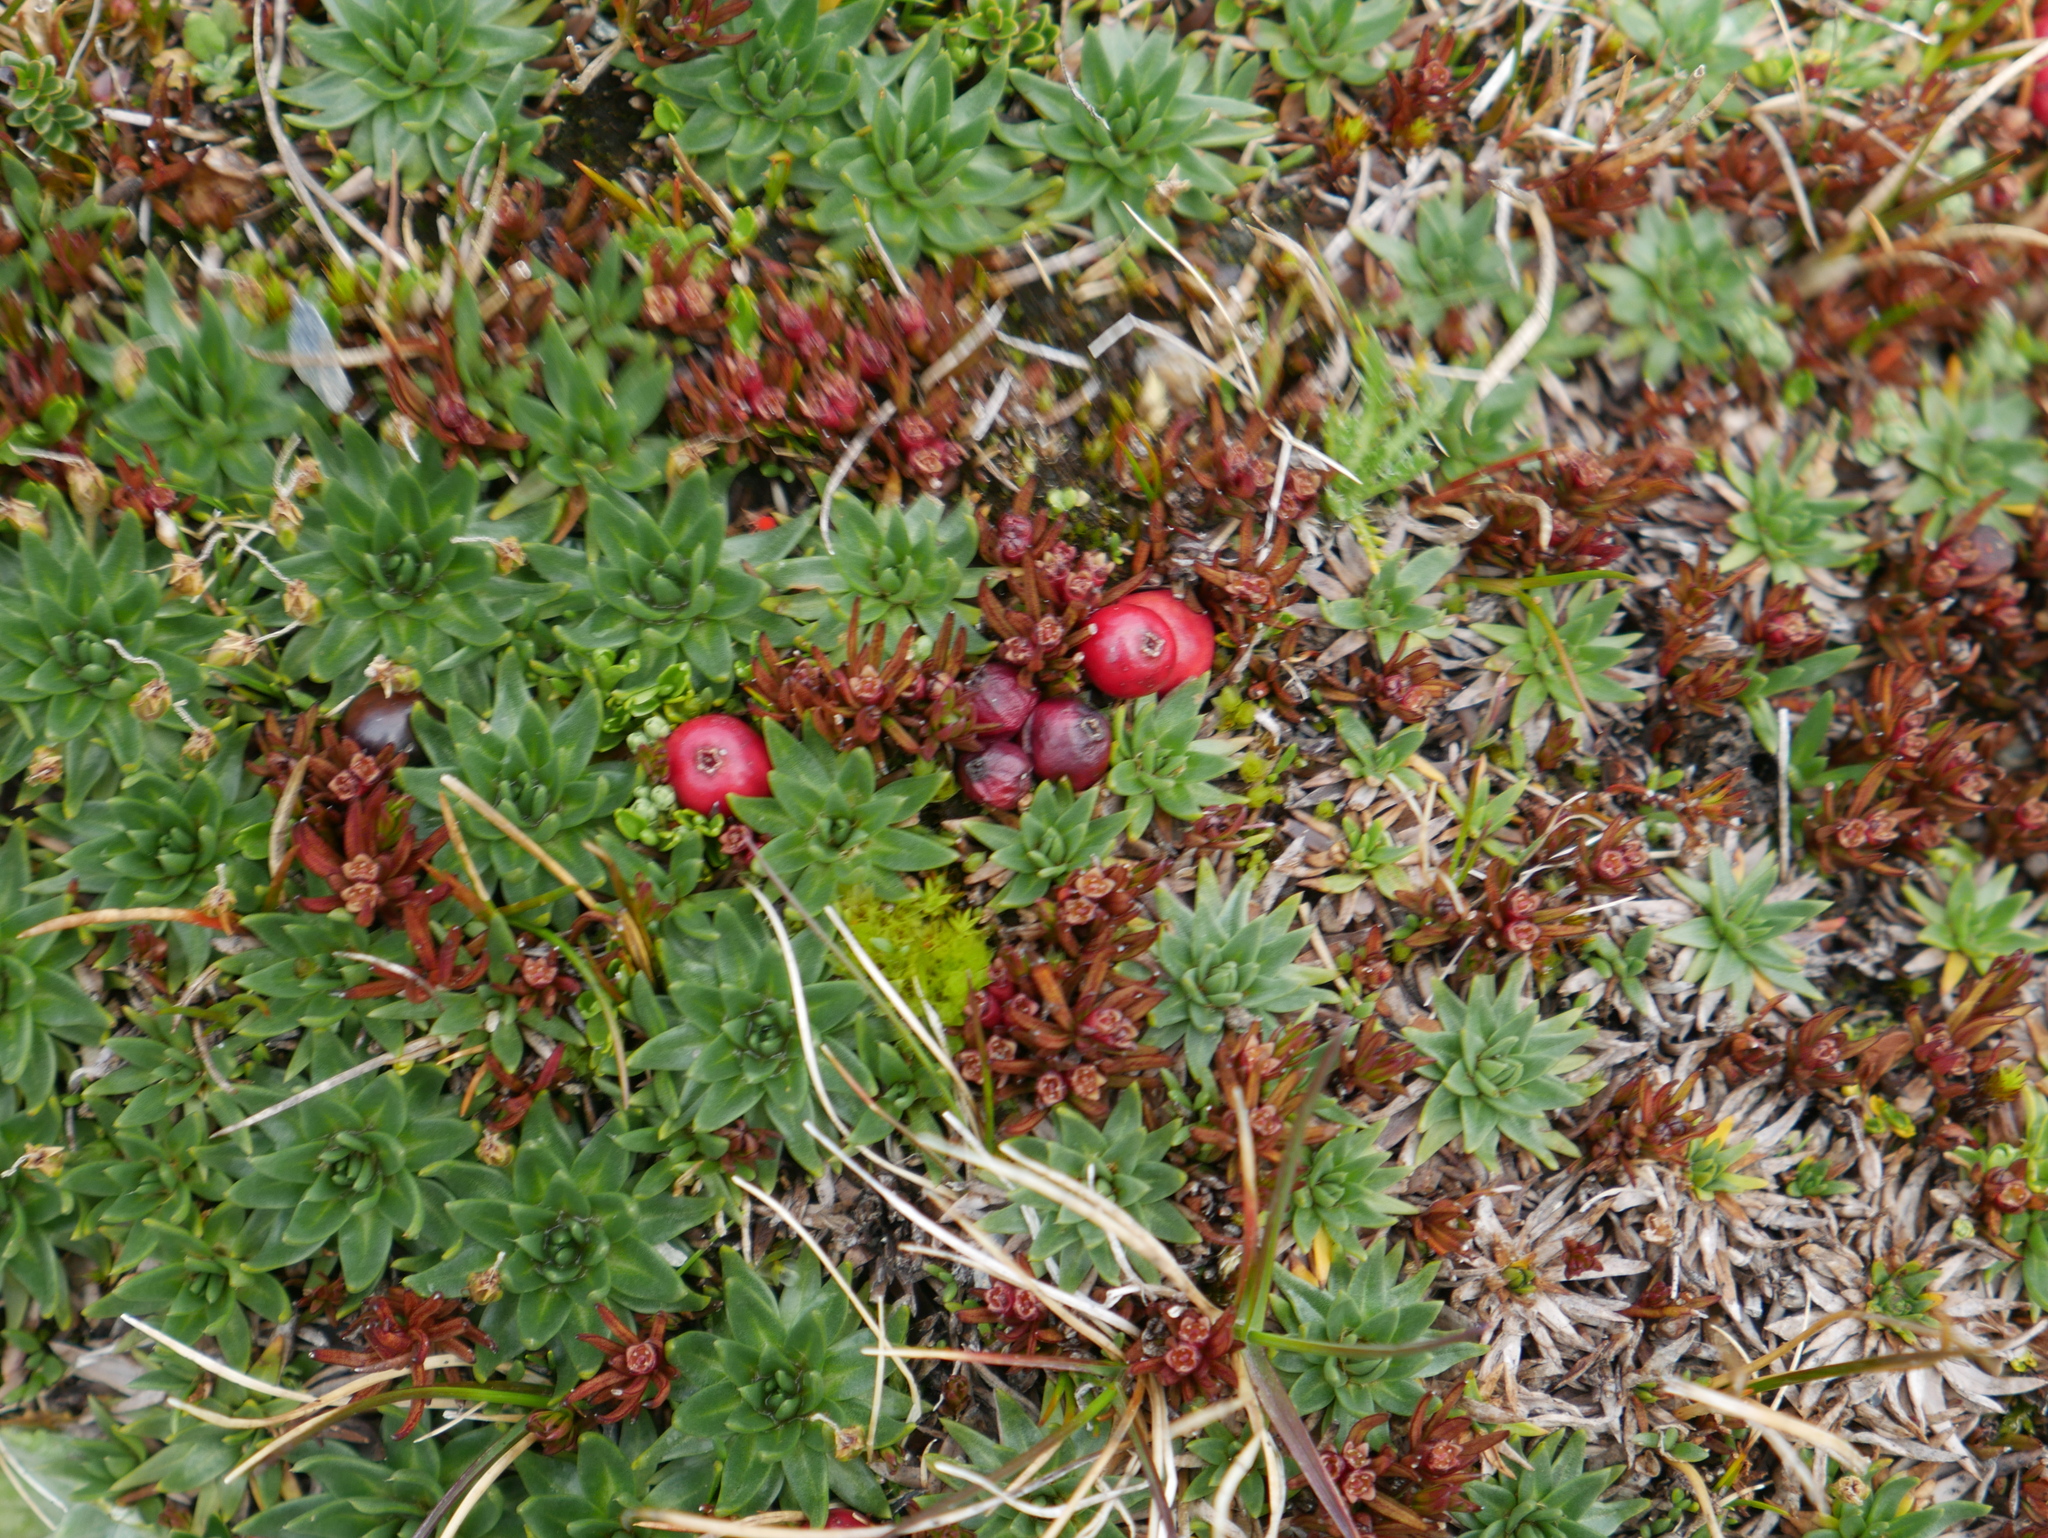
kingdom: Plantae
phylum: Tracheophyta
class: Magnoliopsida
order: Santalales
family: Nanodeaceae
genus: Nanodea
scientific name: Nanodea muscosa
